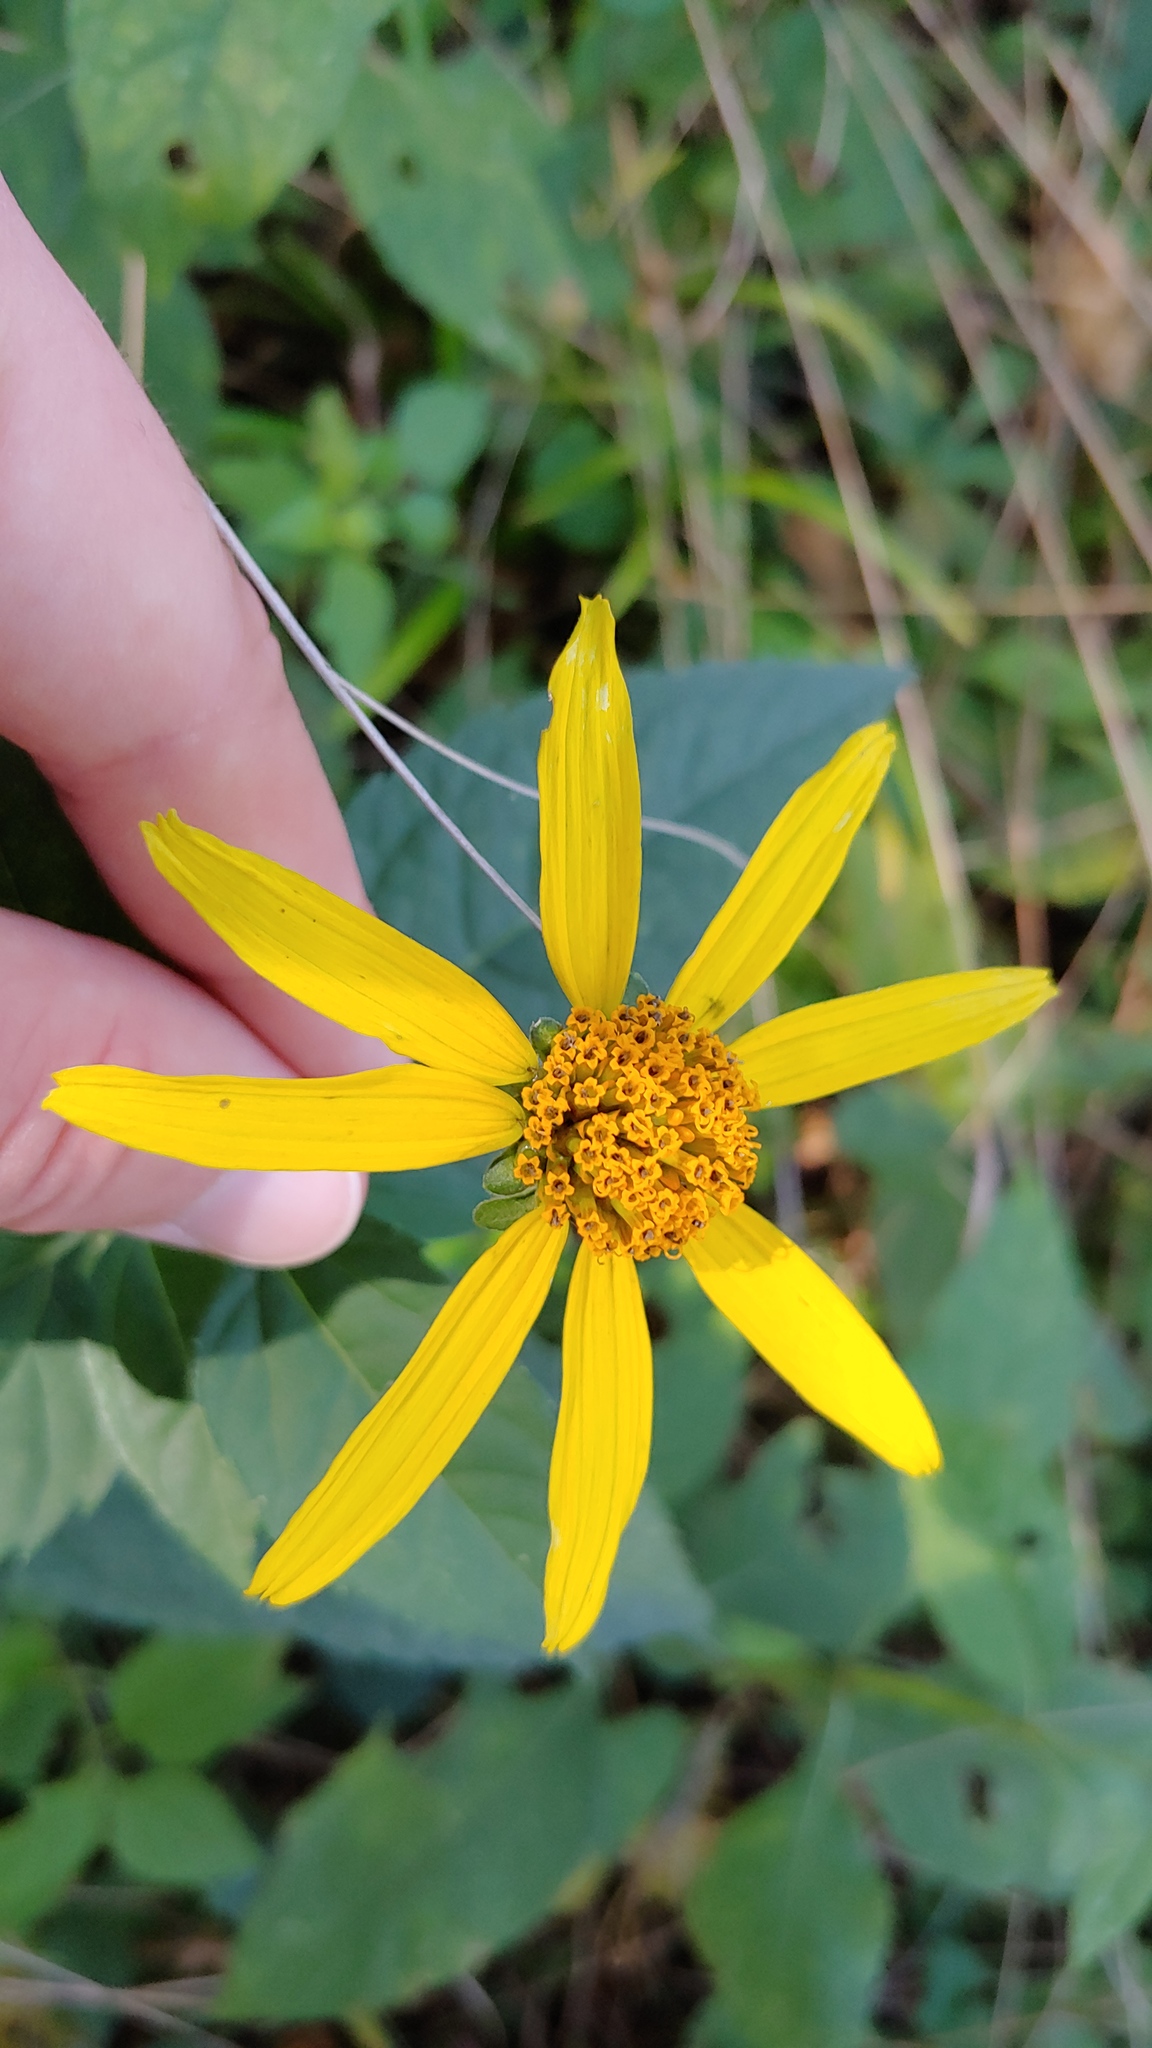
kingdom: Plantae
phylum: Tracheophyta
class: Magnoliopsida
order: Asterales
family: Asteraceae
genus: Heliopsis
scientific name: Heliopsis helianthoides
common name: False sunflower
